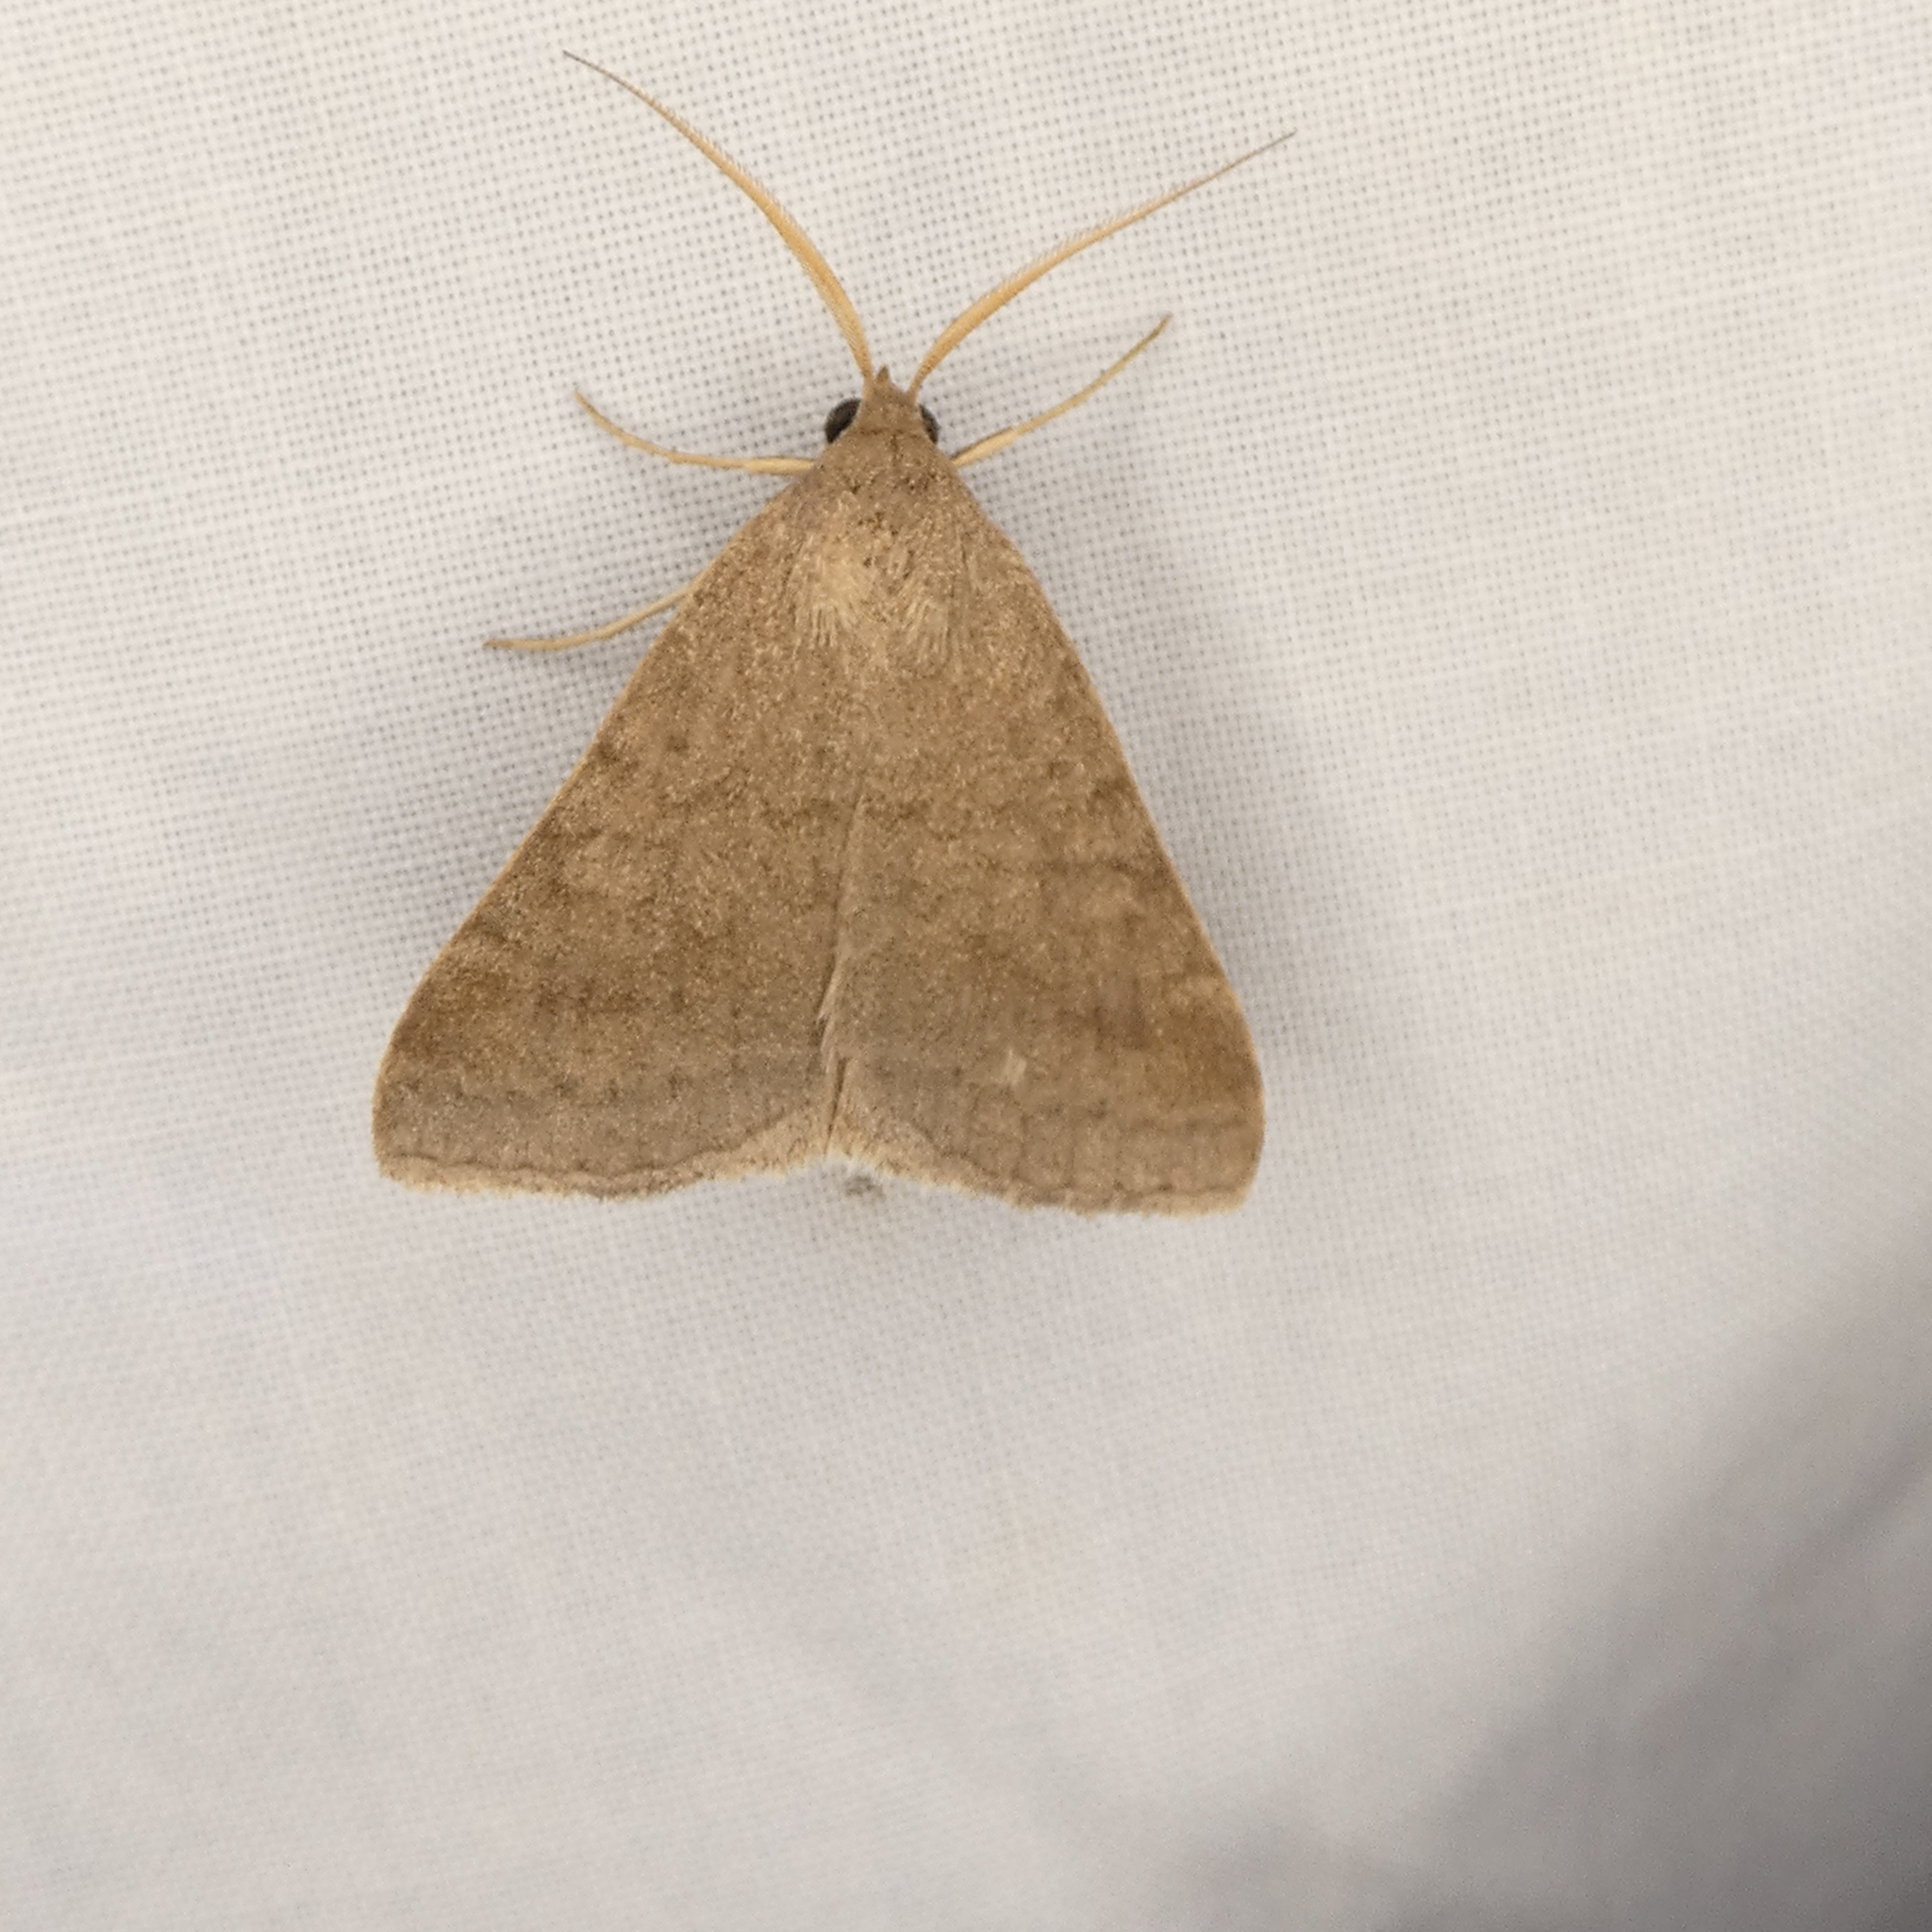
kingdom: Animalia
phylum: Arthropoda
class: Insecta
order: Lepidoptera
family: Erebidae
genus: Caenurgia
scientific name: Caenurgia chloropha
